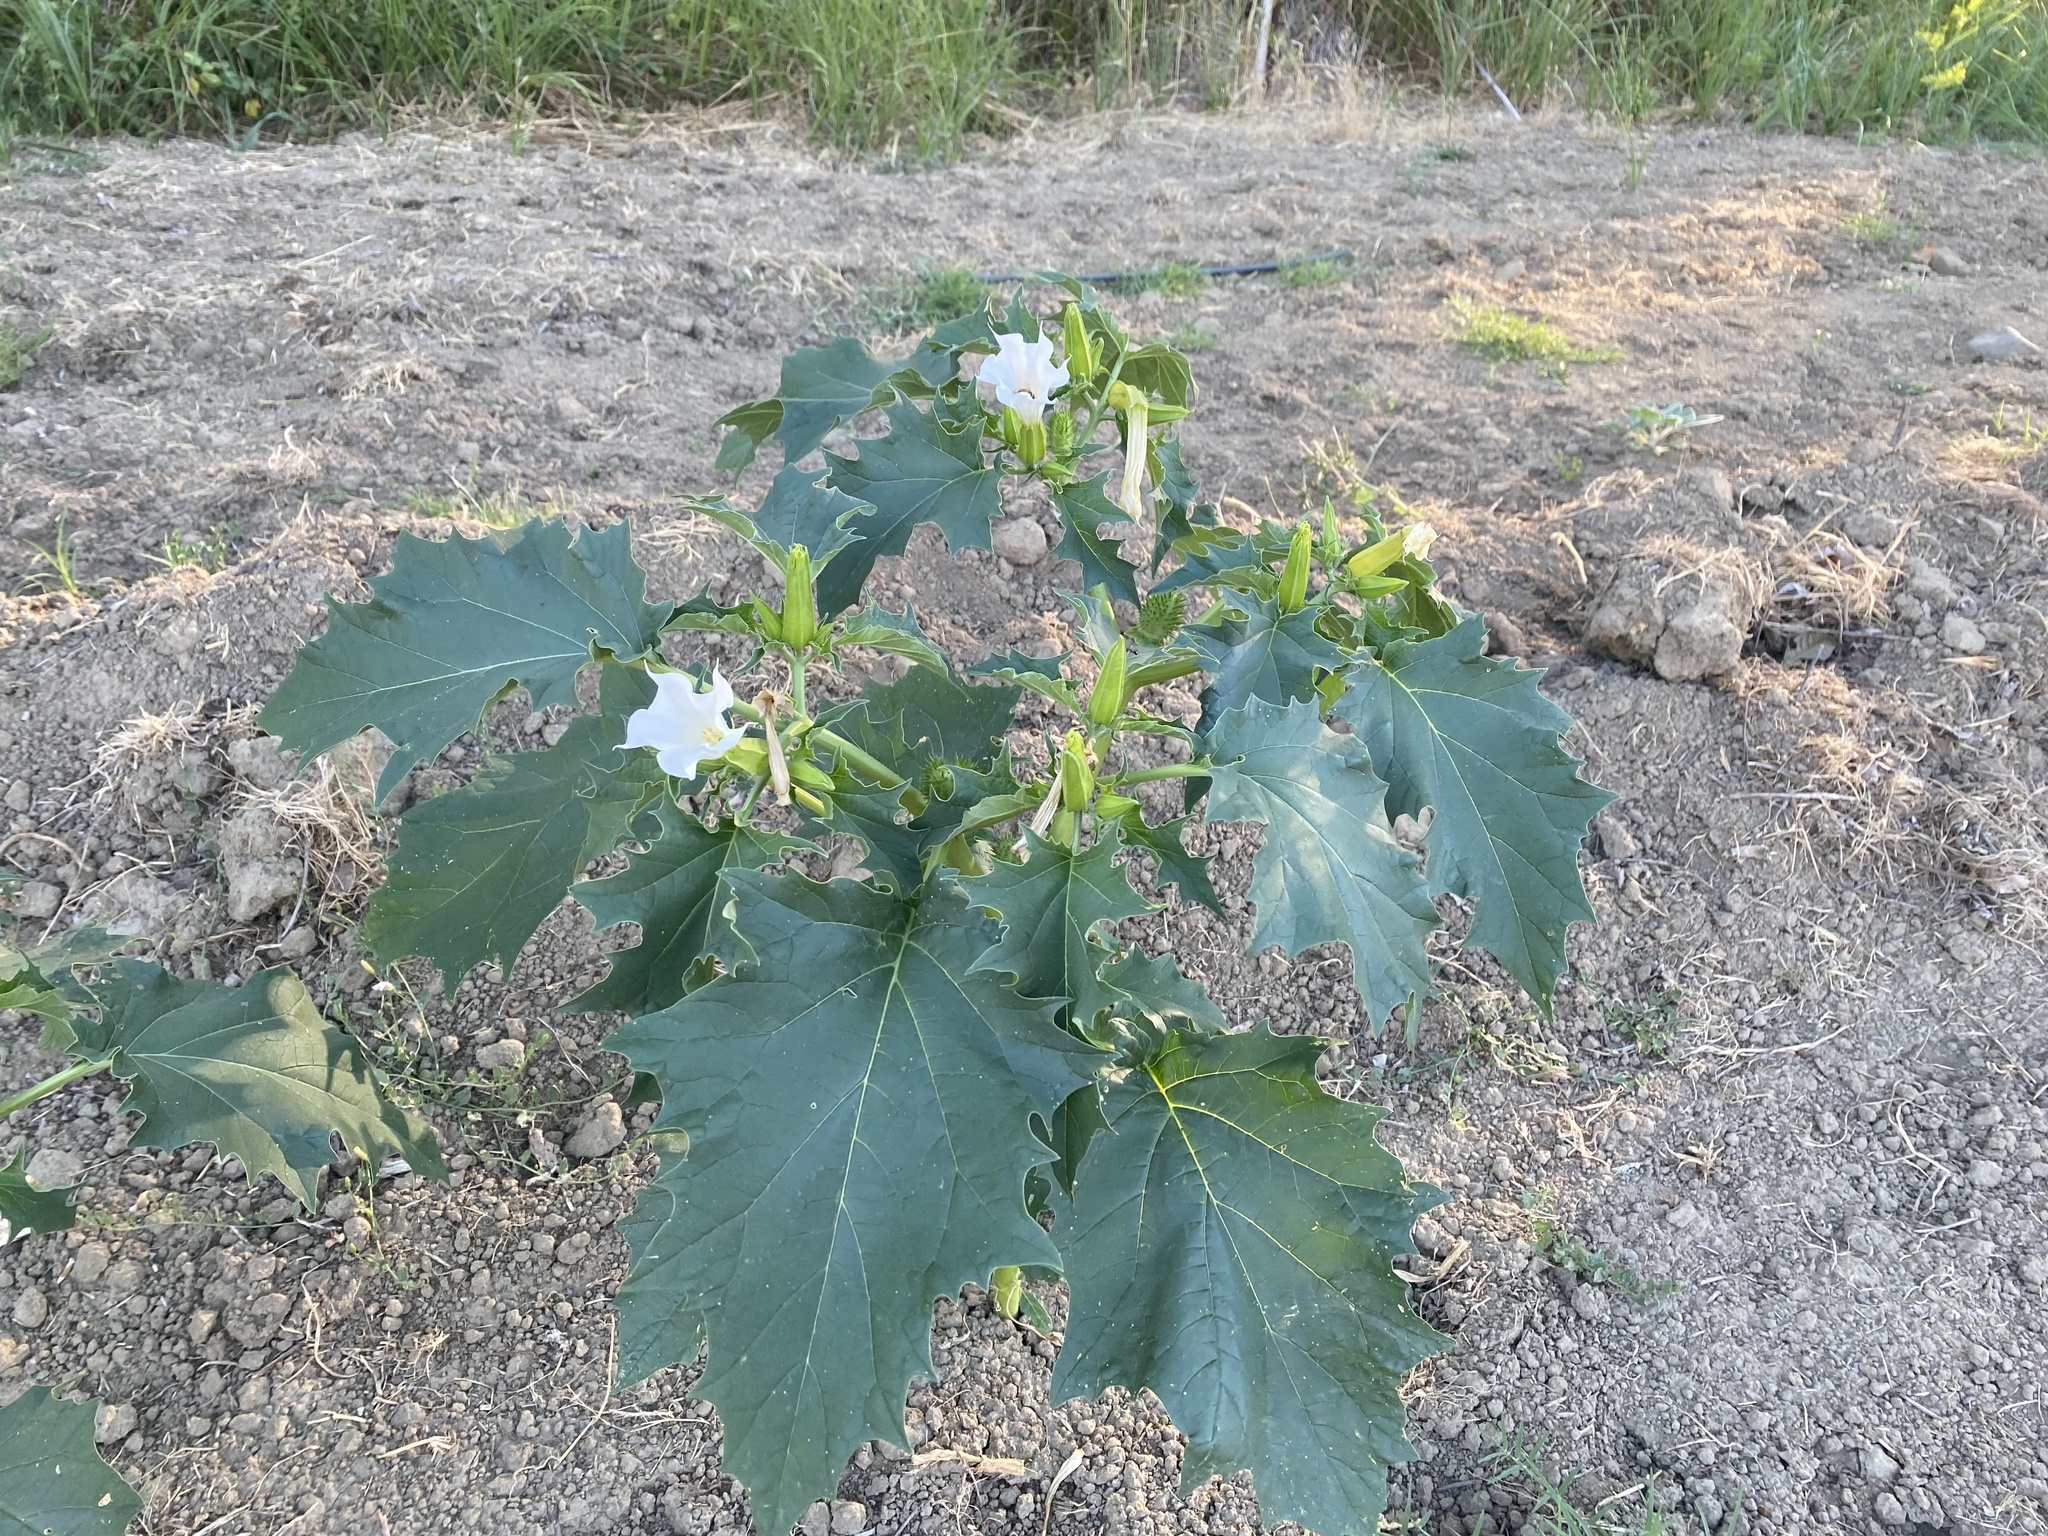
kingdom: Plantae
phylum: Tracheophyta
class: Magnoliopsida
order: Solanales
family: Solanaceae
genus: Datura
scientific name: Datura stramonium
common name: Thorn-apple
